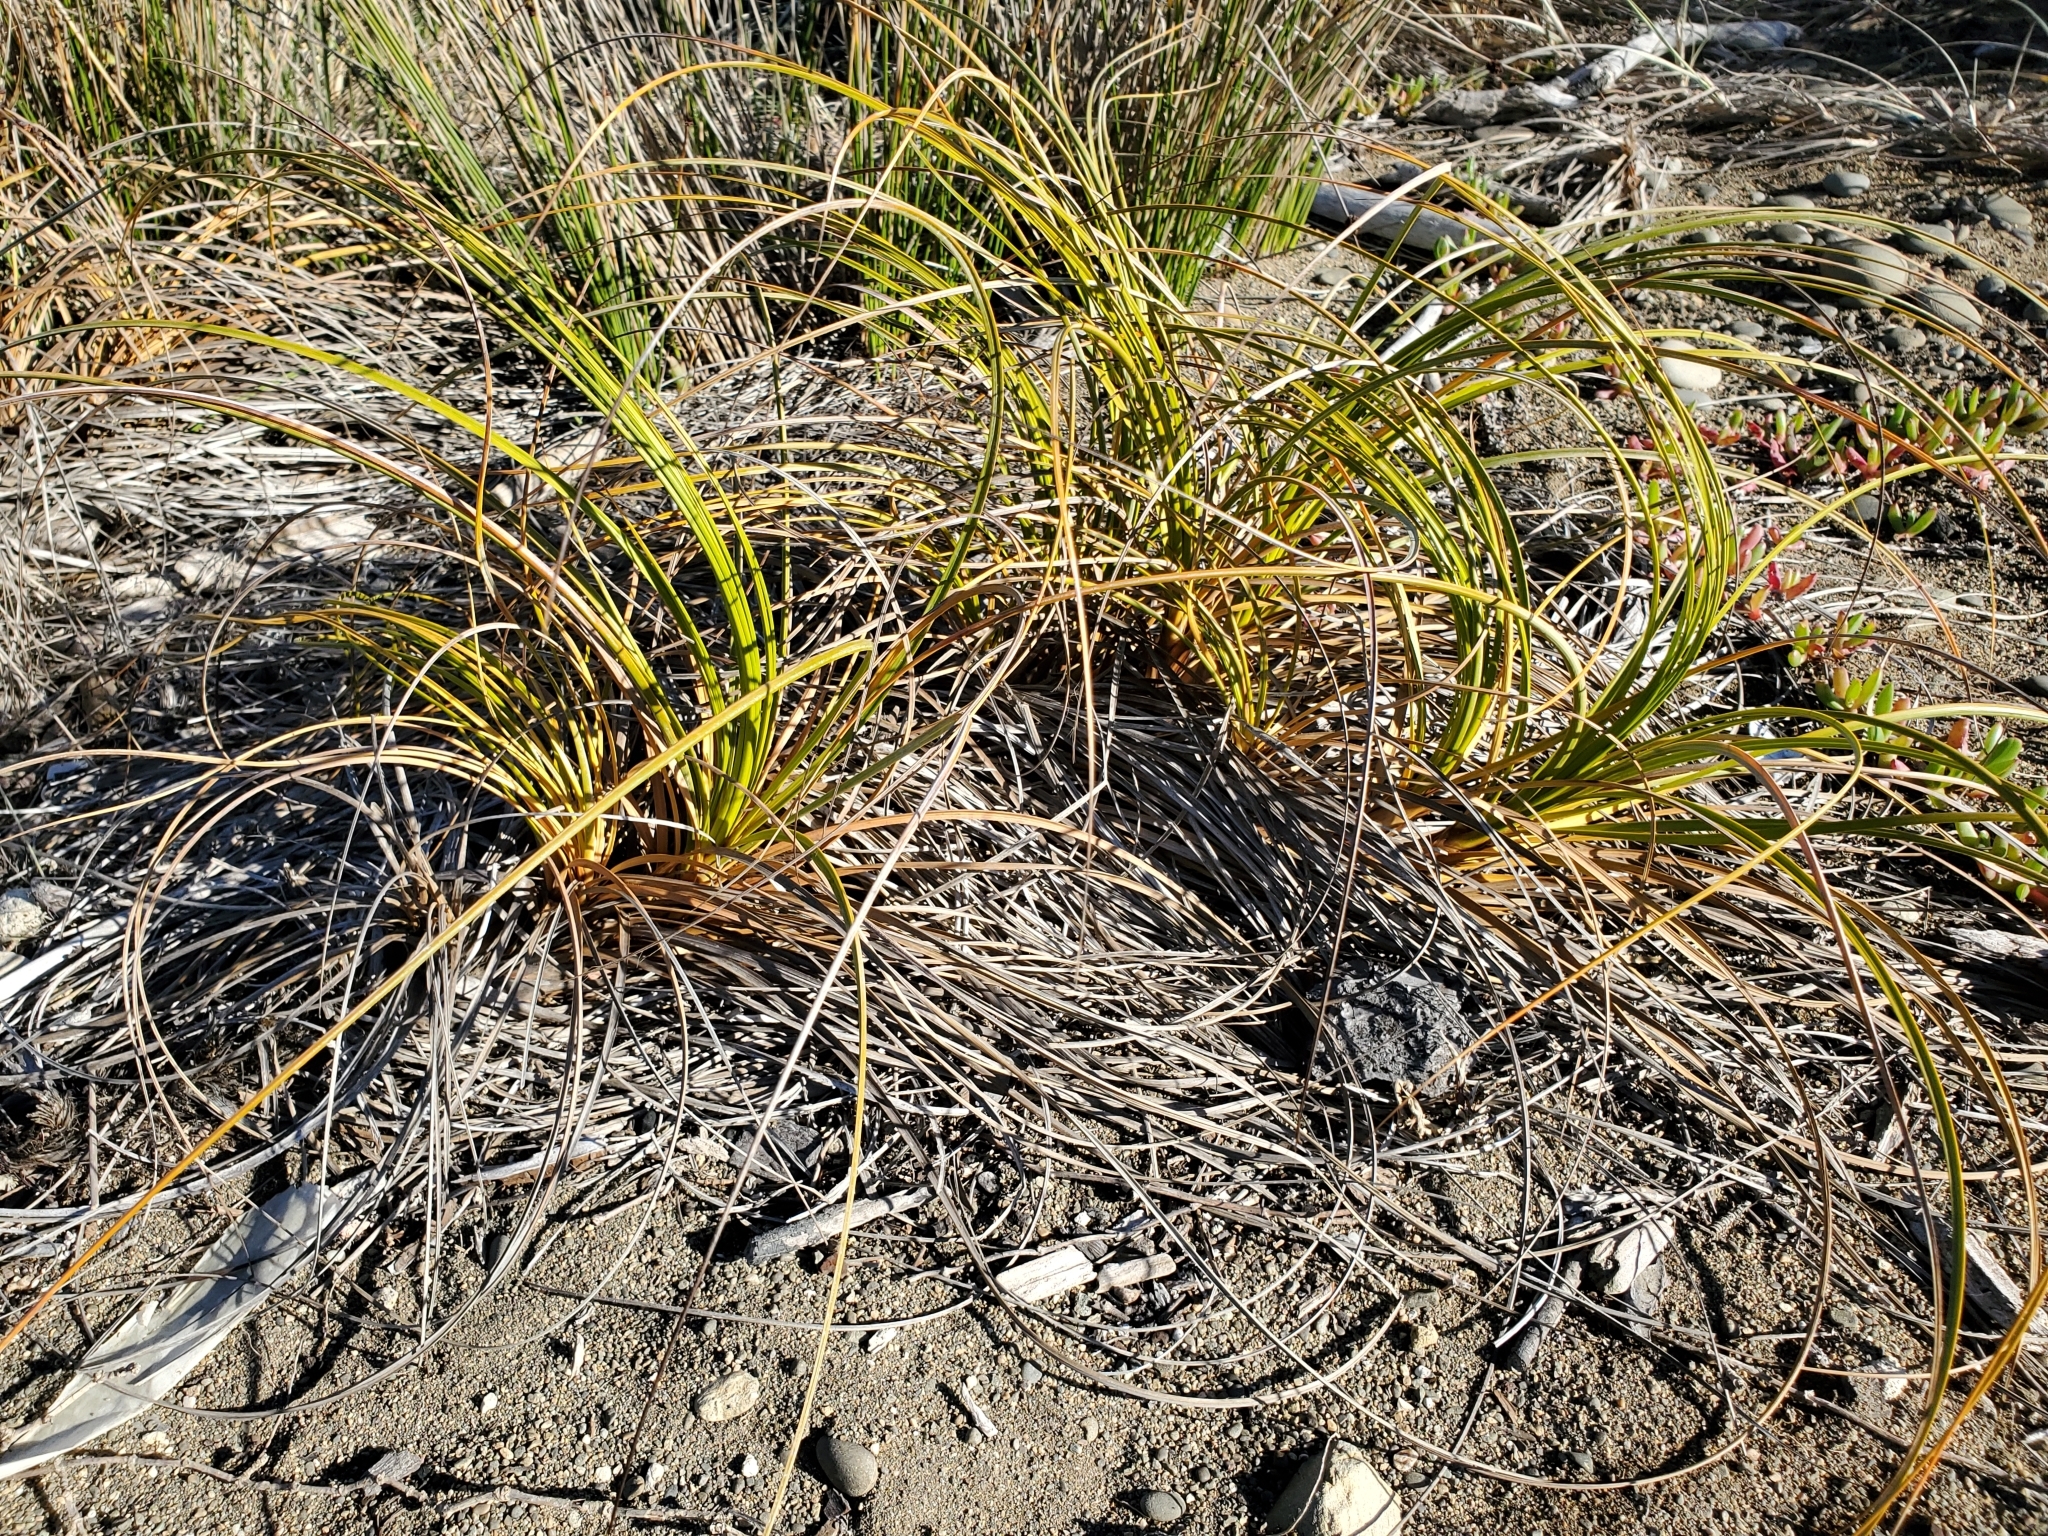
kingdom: Plantae
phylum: Tracheophyta
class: Liliopsida
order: Poales
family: Cyperaceae
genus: Ficinia
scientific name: Ficinia spiralis
